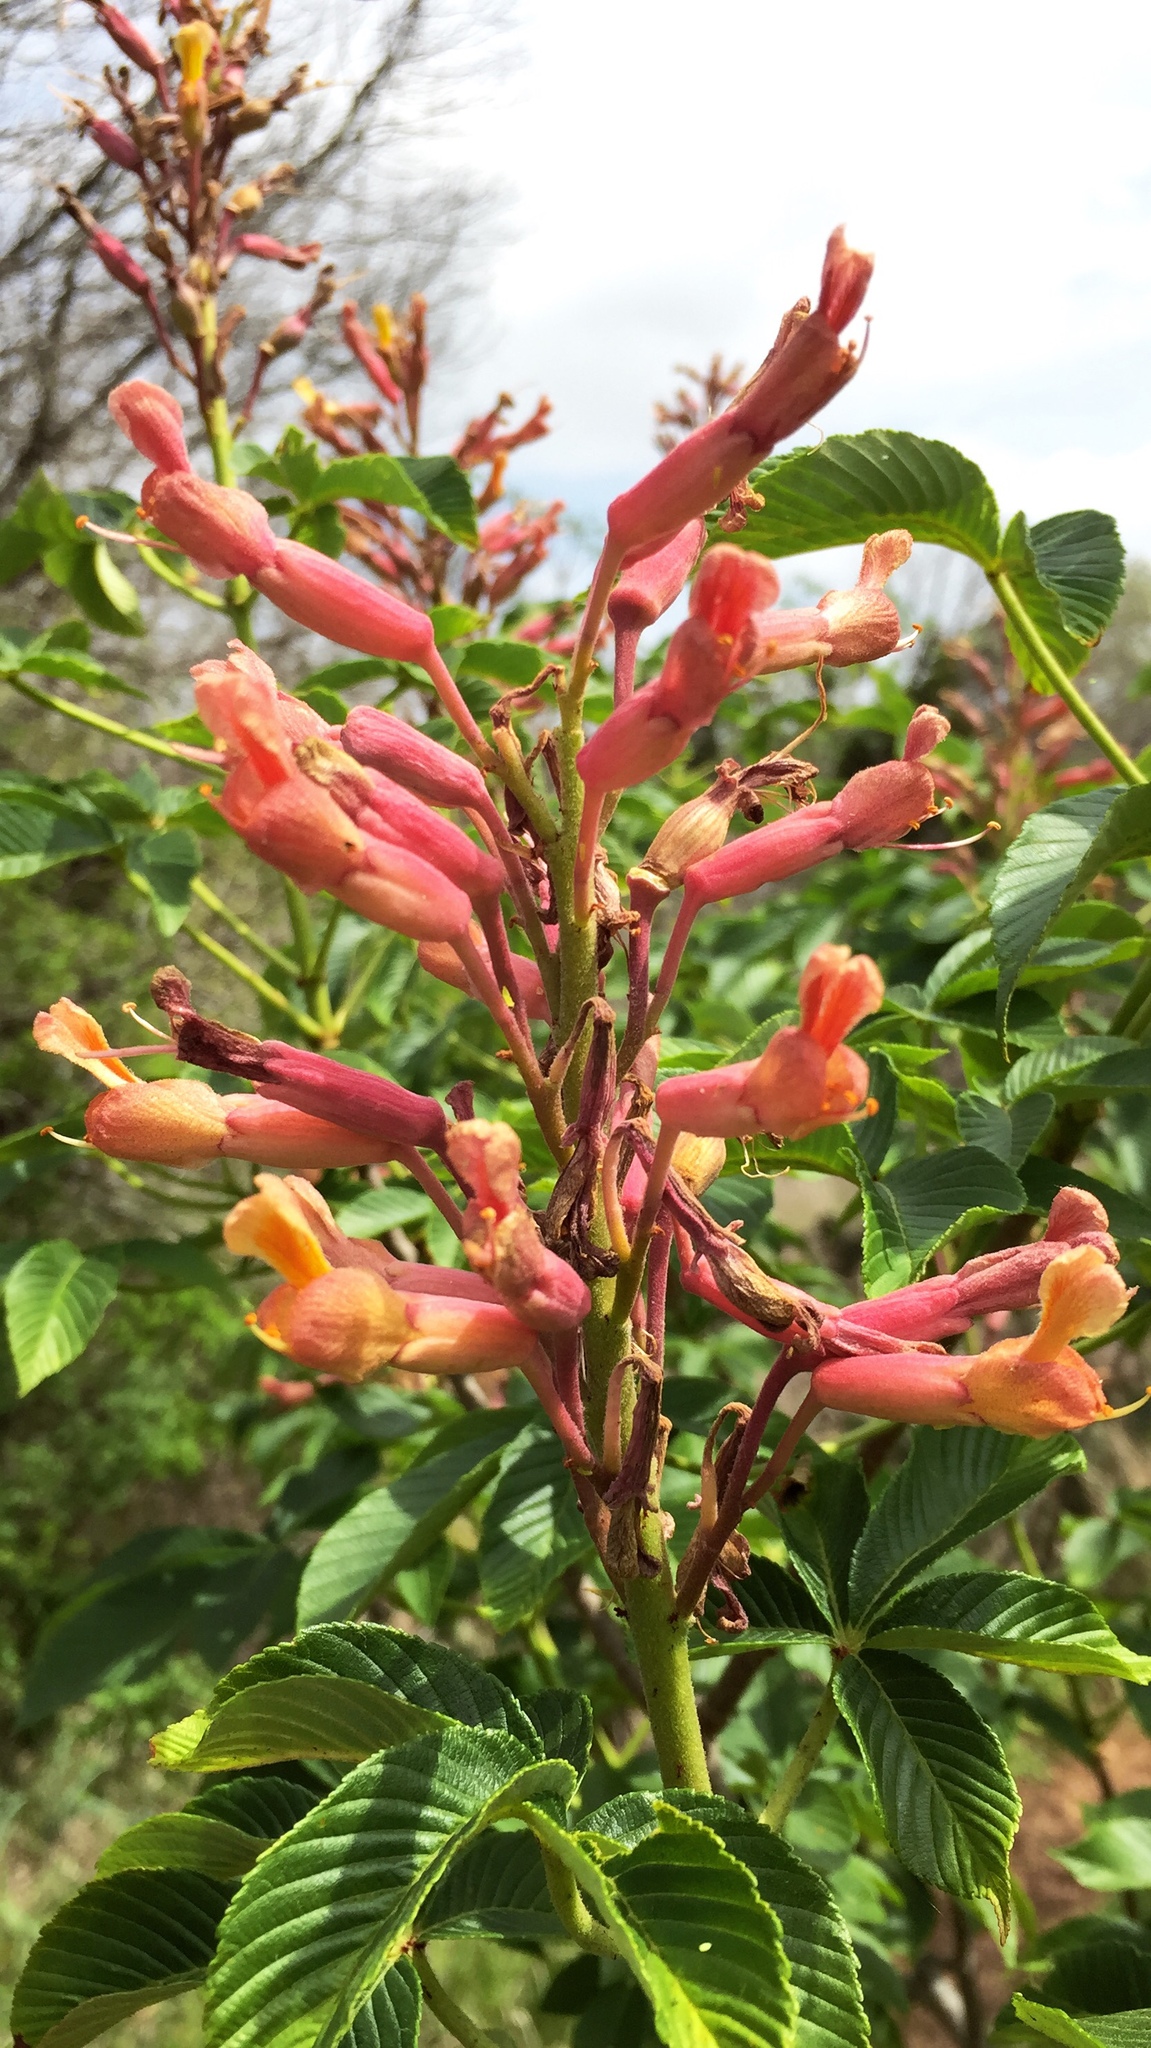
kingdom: Plantae
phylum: Tracheophyta
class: Magnoliopsida
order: Sapindales
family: Sapindaceae
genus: Aesculus
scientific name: Aesculus pavia
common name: Red buckeye
